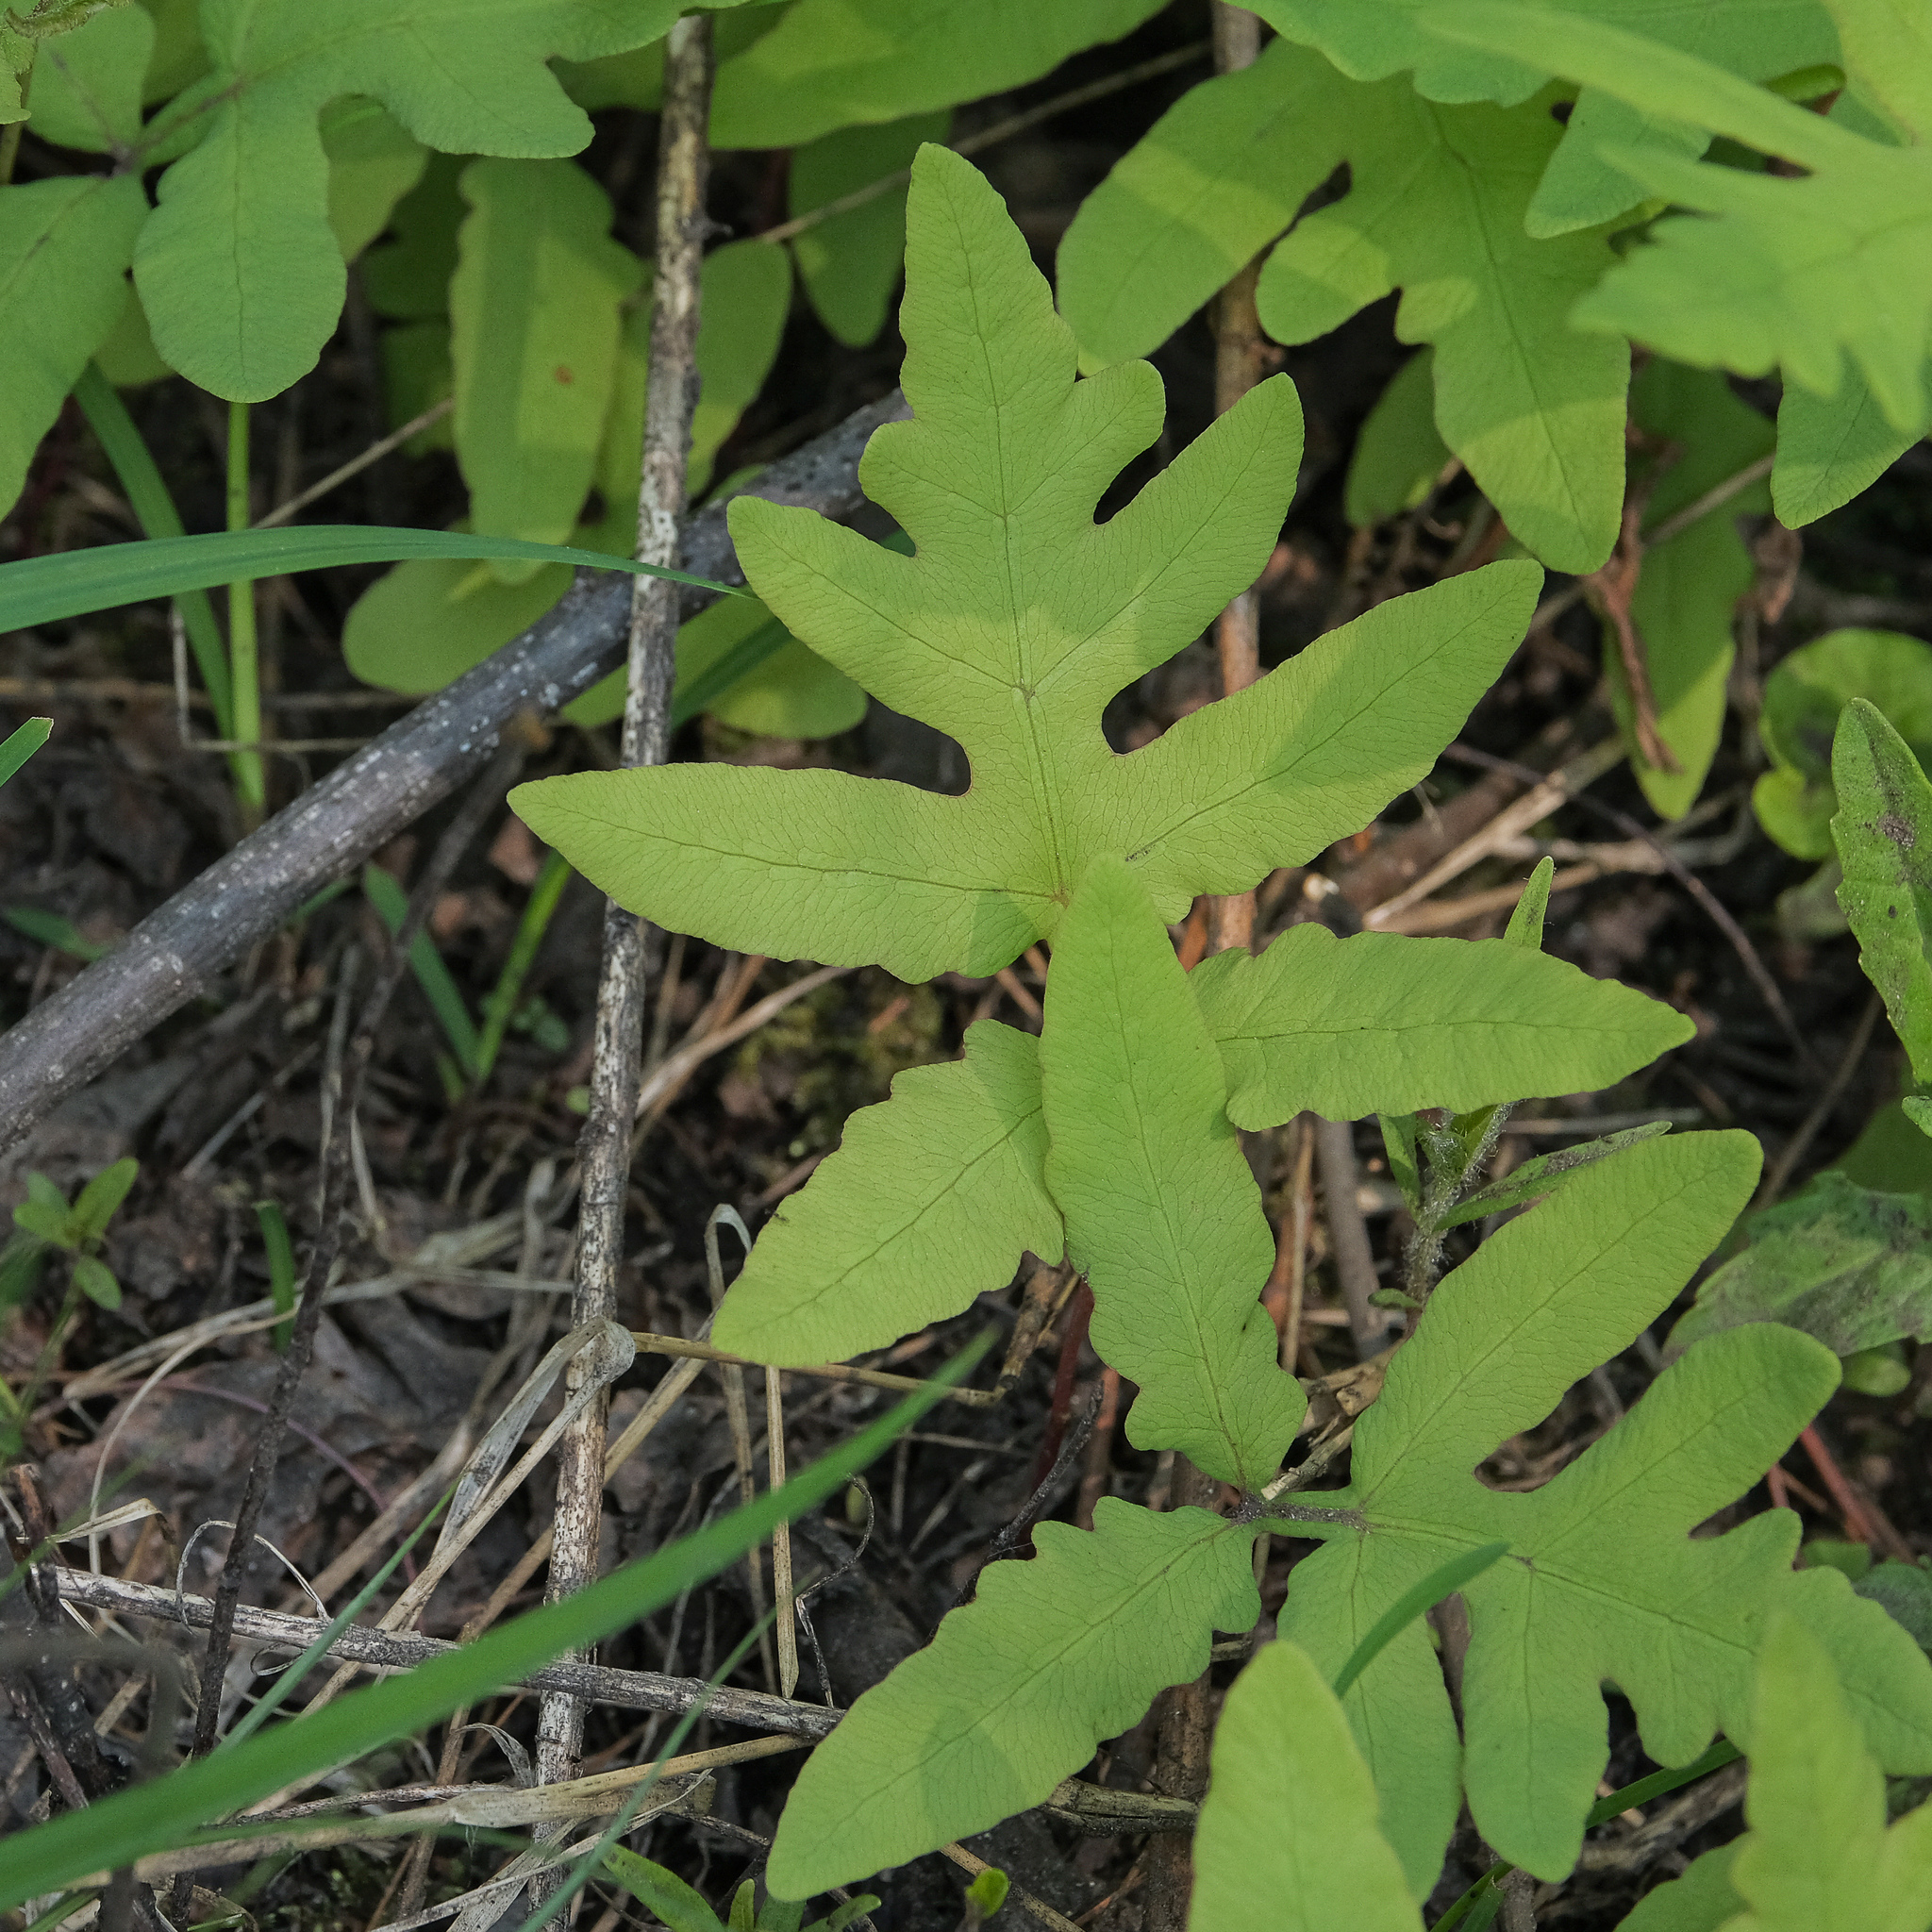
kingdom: Plantae
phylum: Tracheophyta
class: Polypodiopsida
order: Polypodiales
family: Onocleaceae
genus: Onoclea
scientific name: Onoclea sensibilis
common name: Sensitive fern
